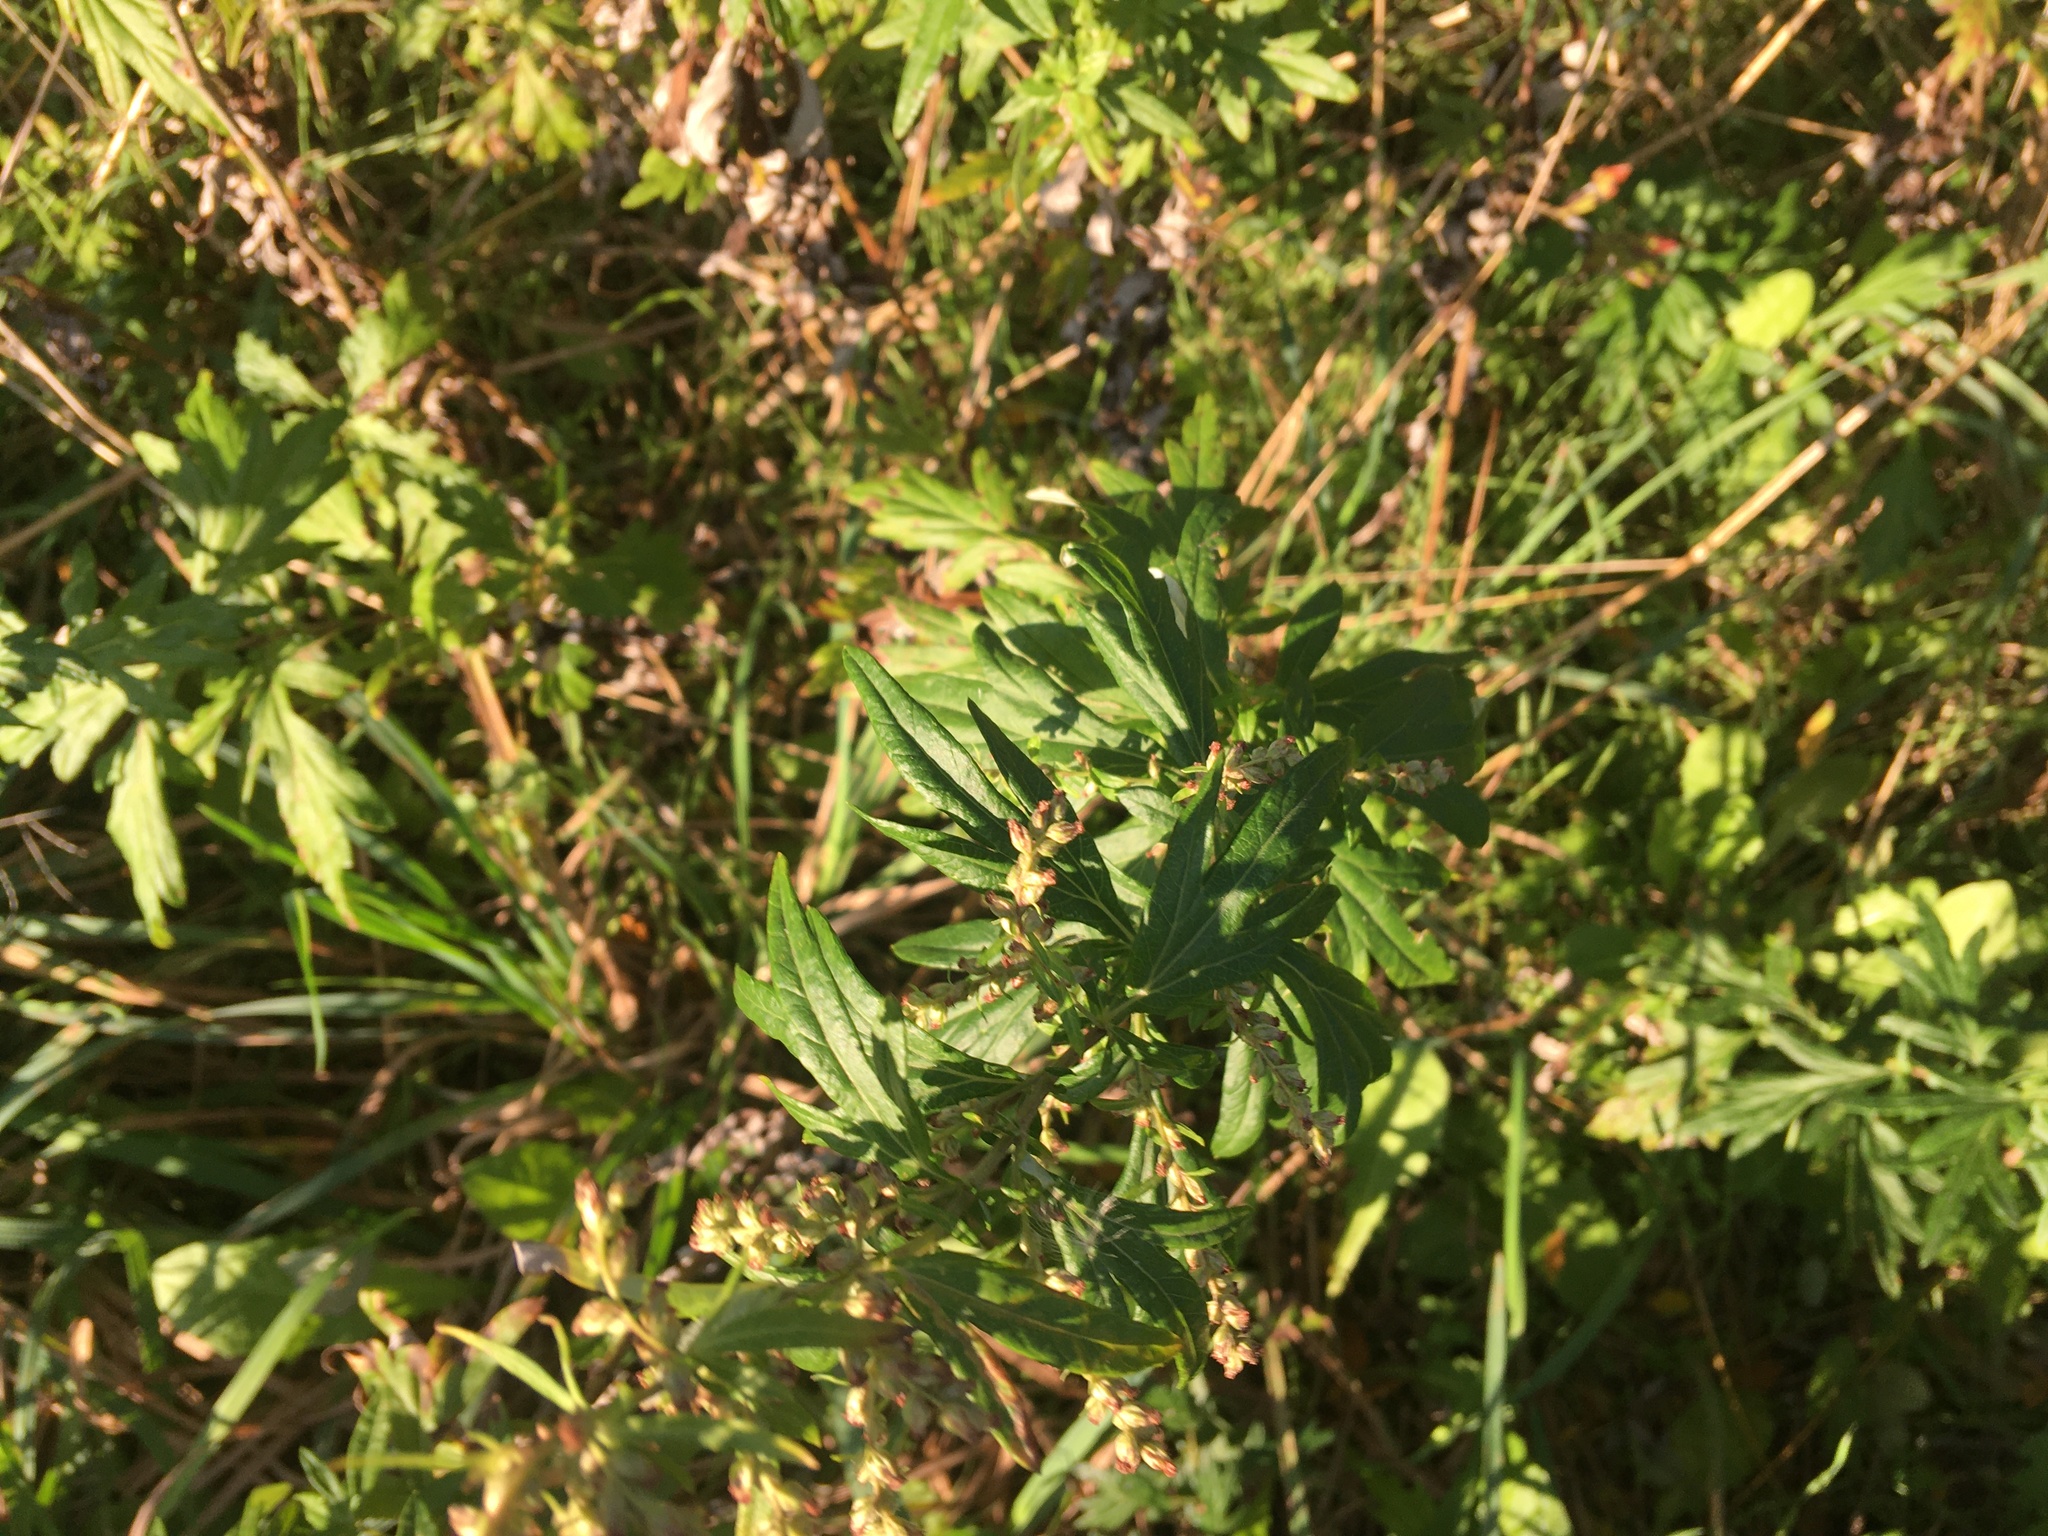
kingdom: Plantae
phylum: Tracheophyta
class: Magnoliopsida
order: Asterales
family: Asteraceae
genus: Artemisia
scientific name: Artemisia vulgaris
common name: Mugwort
